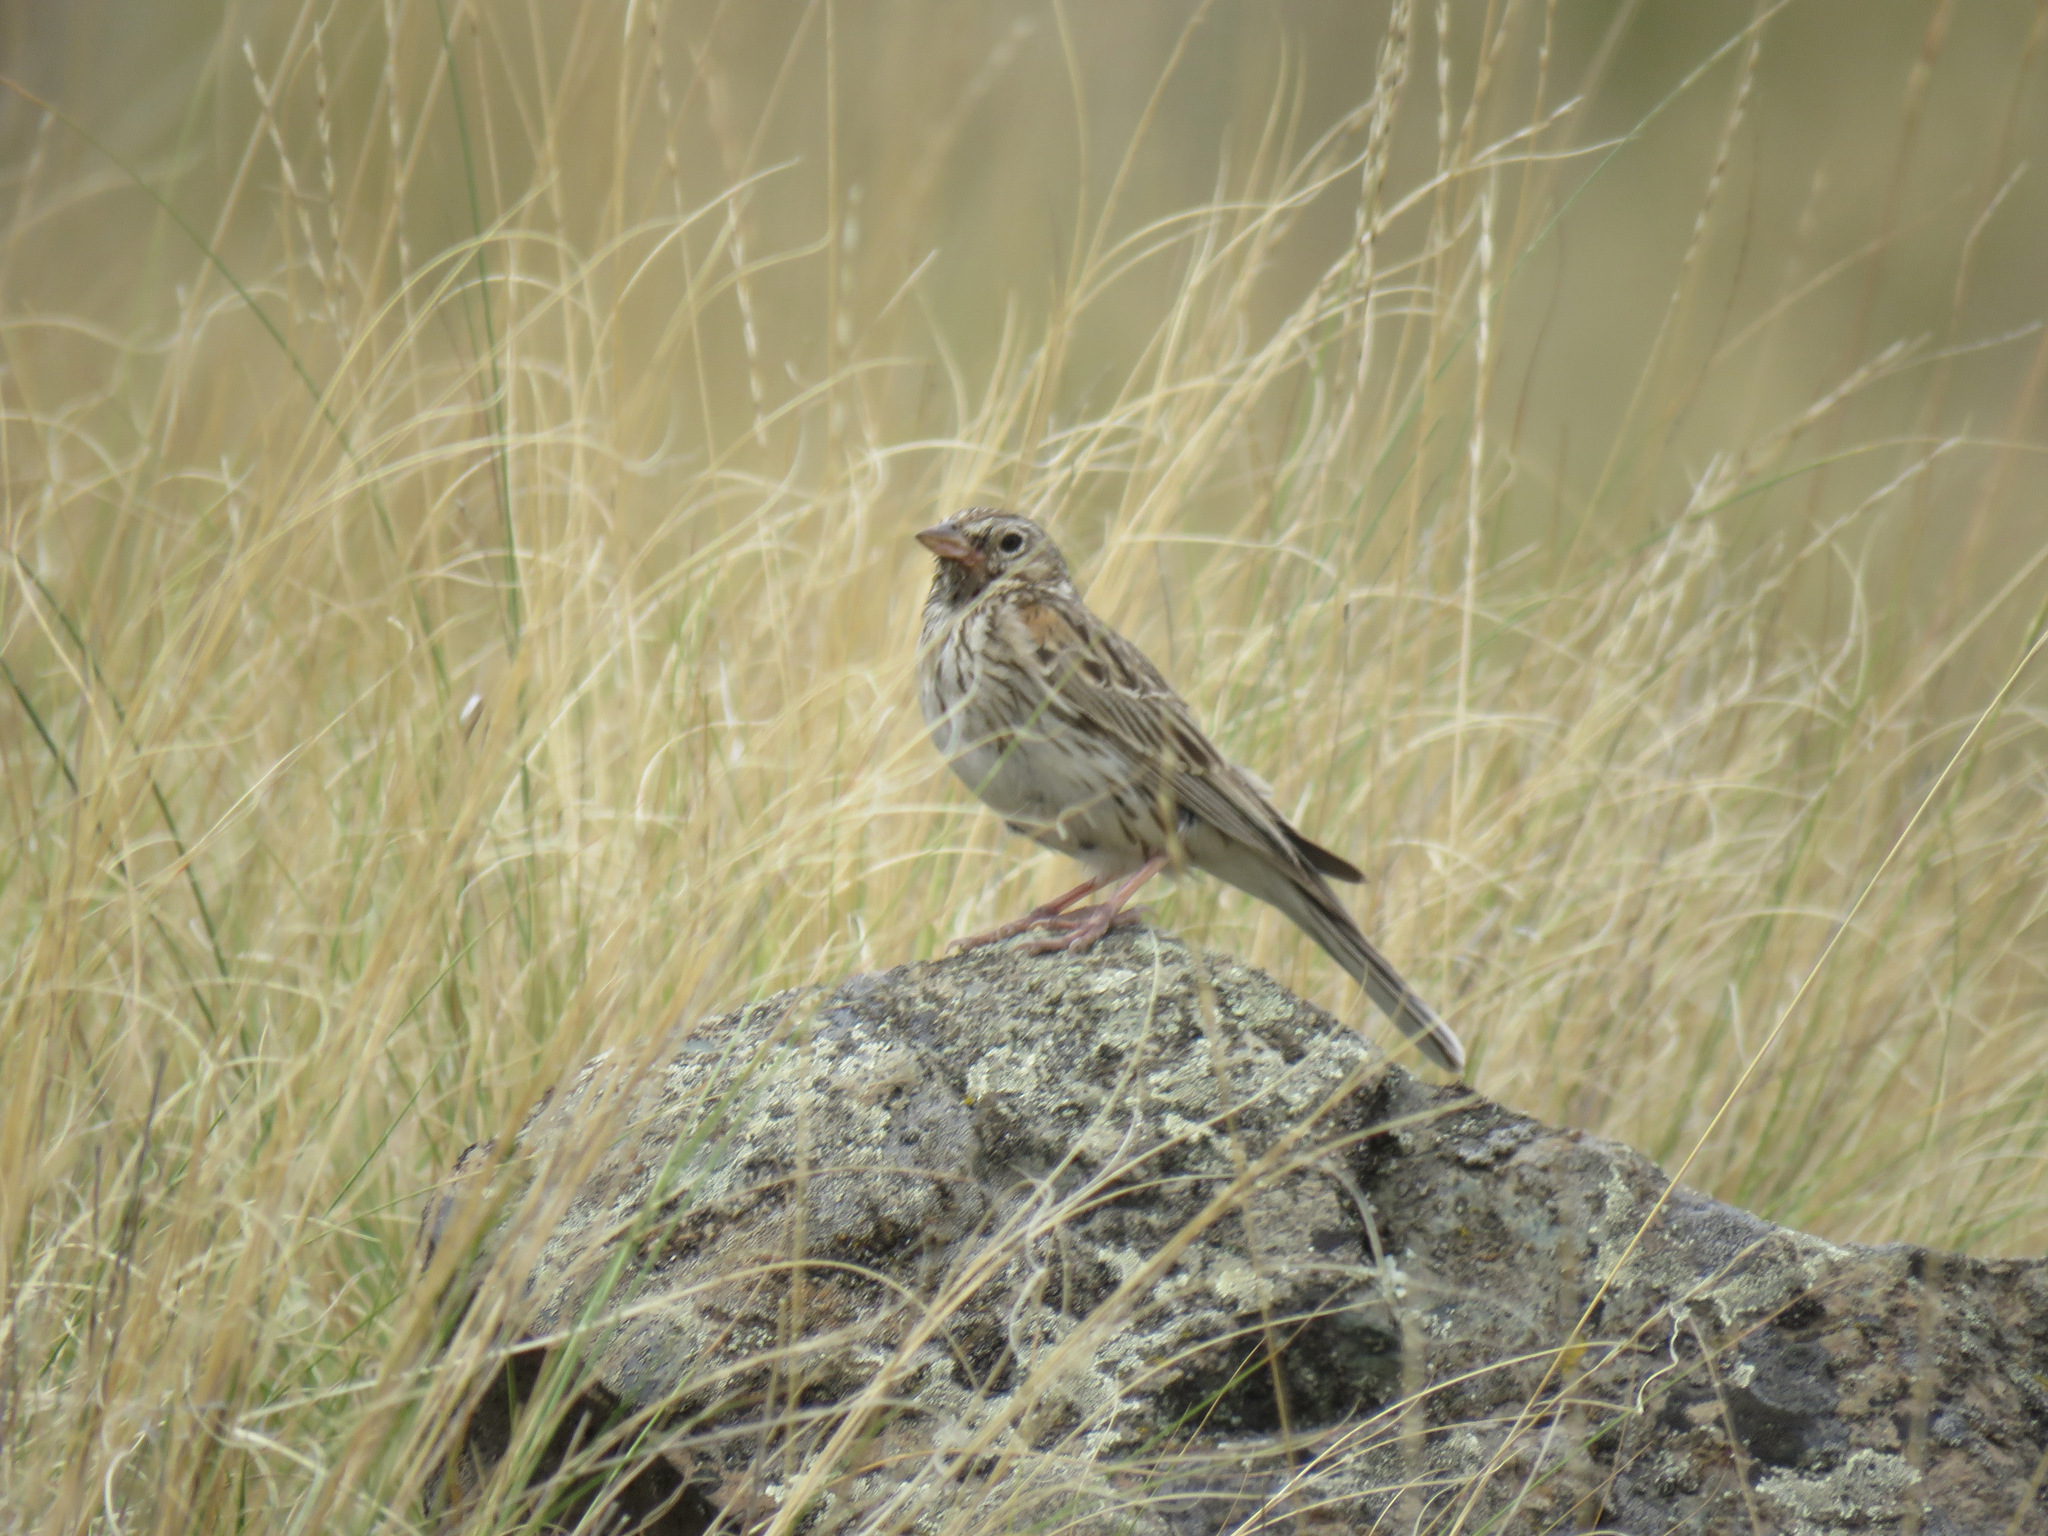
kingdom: Animalia
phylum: Chordata
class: Aves
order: Passeriformes
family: Passerellidae
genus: Pooecetes
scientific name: Pooecetes gramineus
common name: Vesper sparrow
